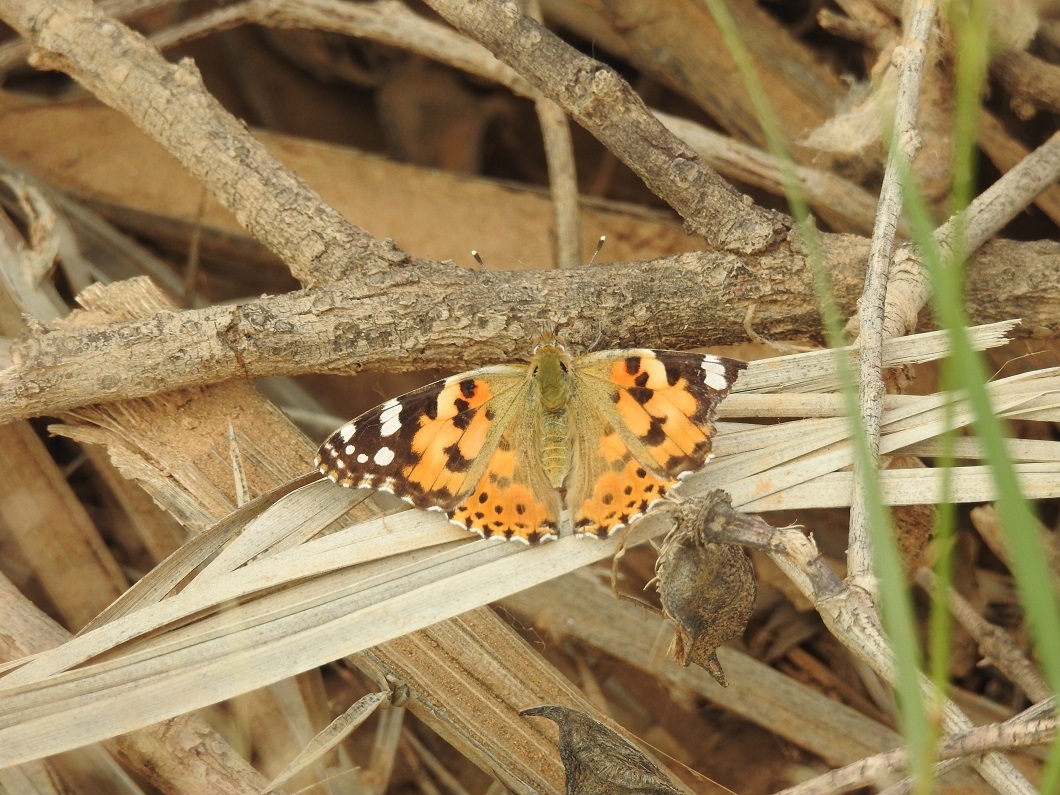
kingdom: Animalia
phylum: Arthropoda
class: Insecta
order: Lepidoptera
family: Nymphalidae
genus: Vanessa
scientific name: Vanessa cardui
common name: Painted lady
